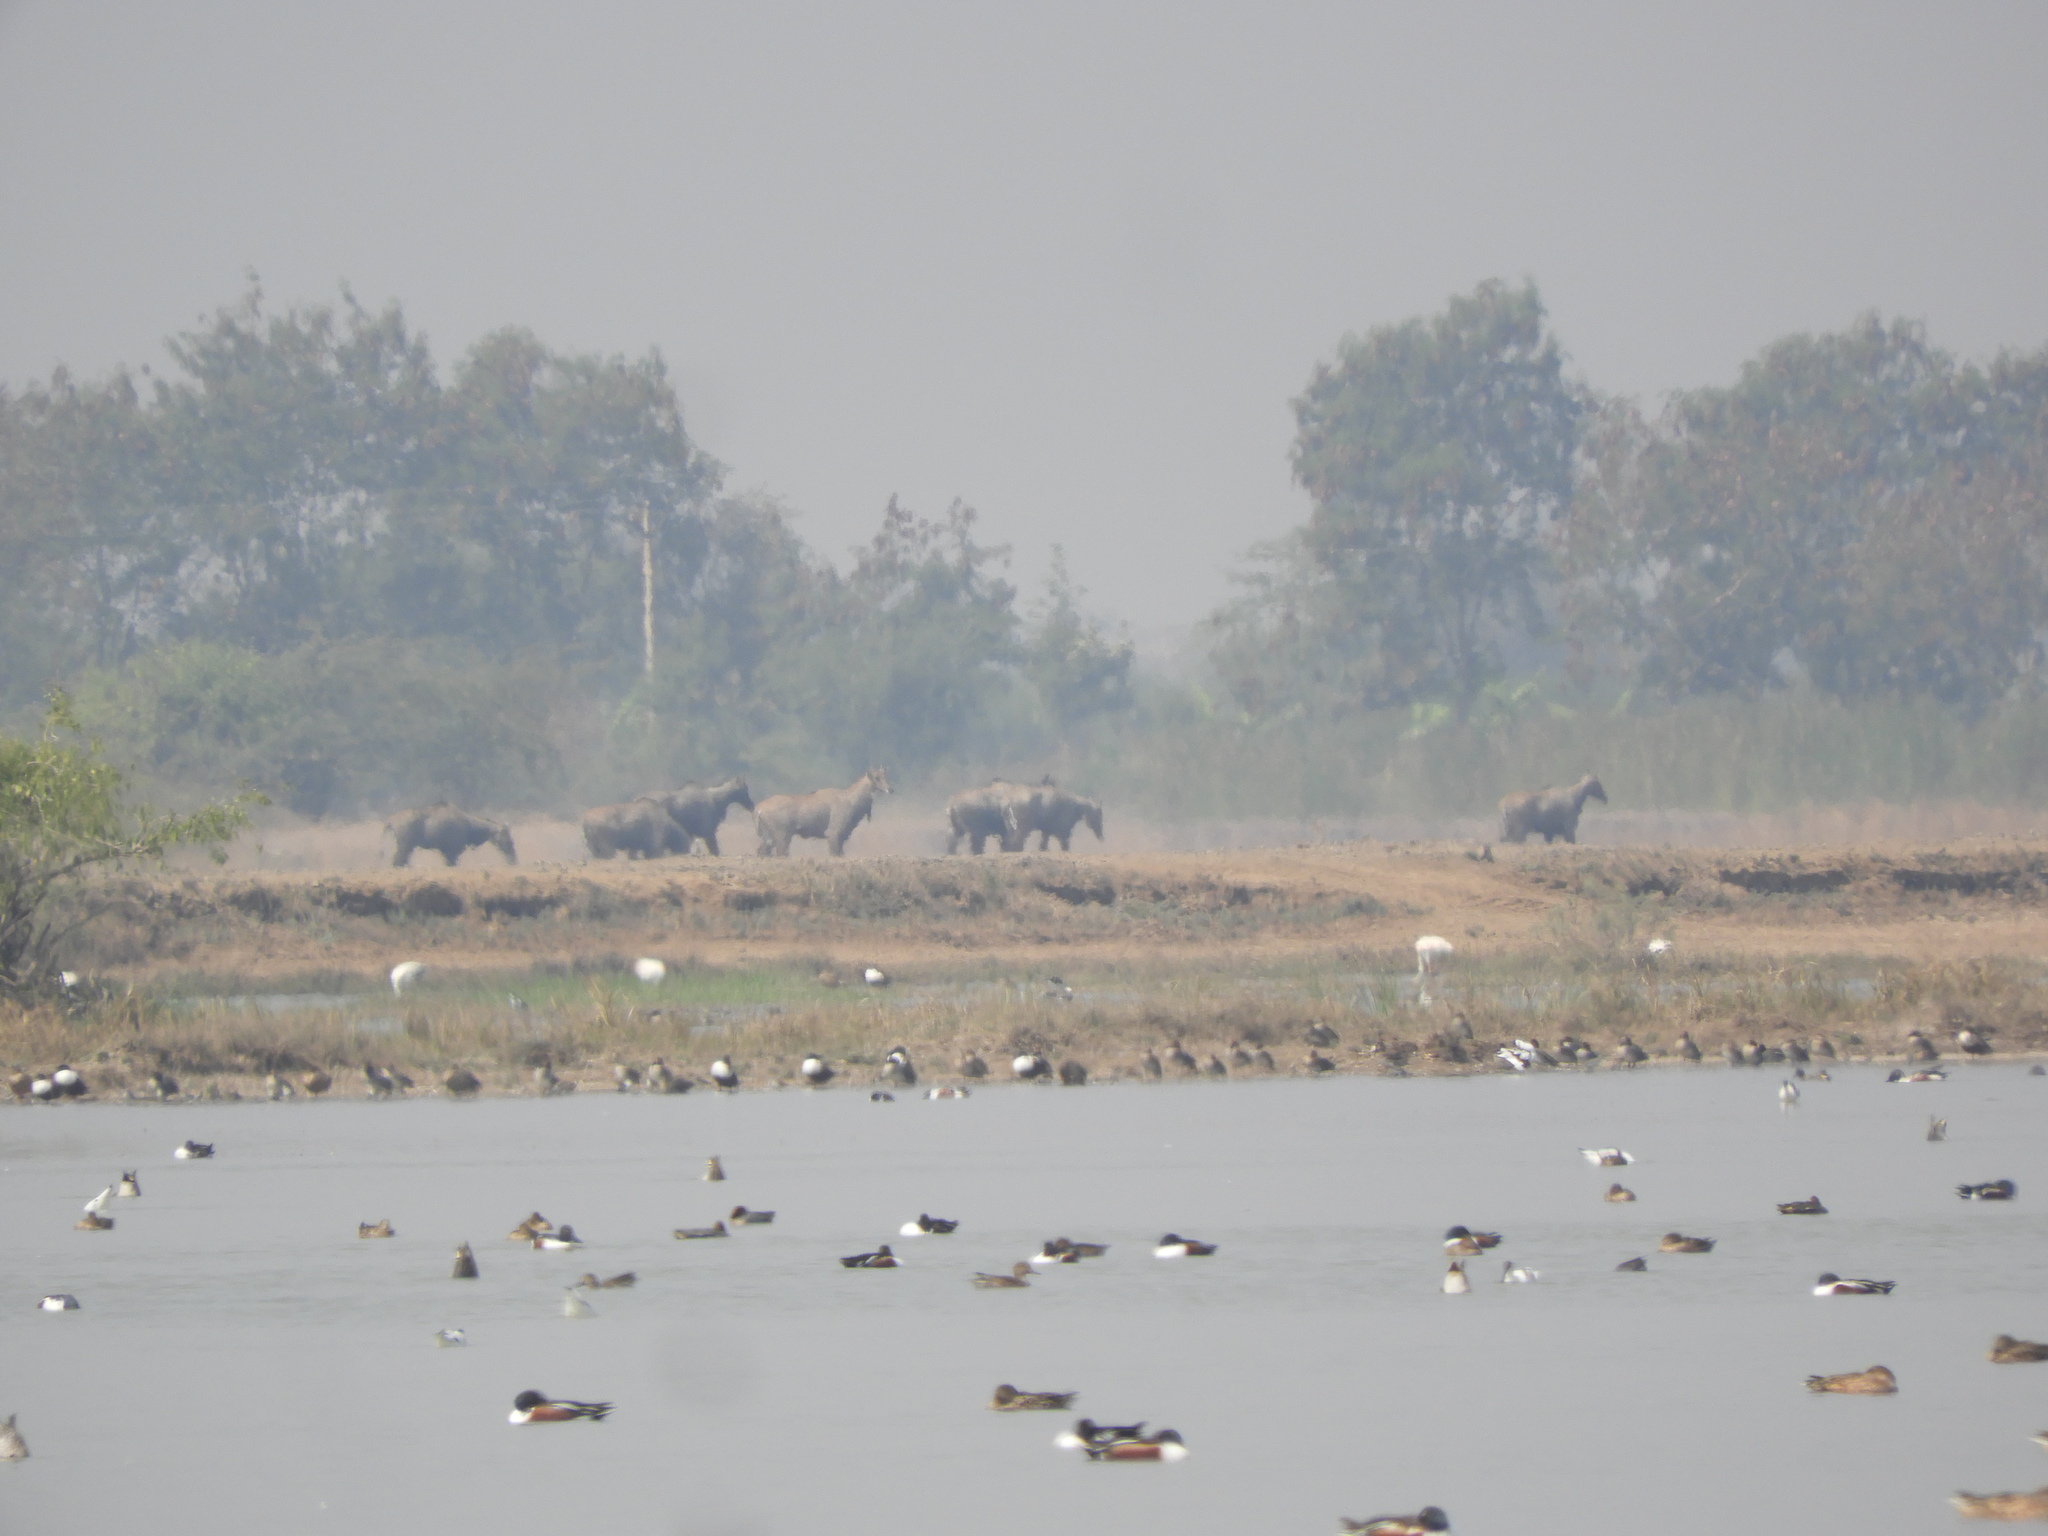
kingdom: Animalia
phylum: Chordata
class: Mammalia
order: Artiodactyla
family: Bovidae
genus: Boselaphus
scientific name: Boselaphus tragocamelus
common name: Nilgai
